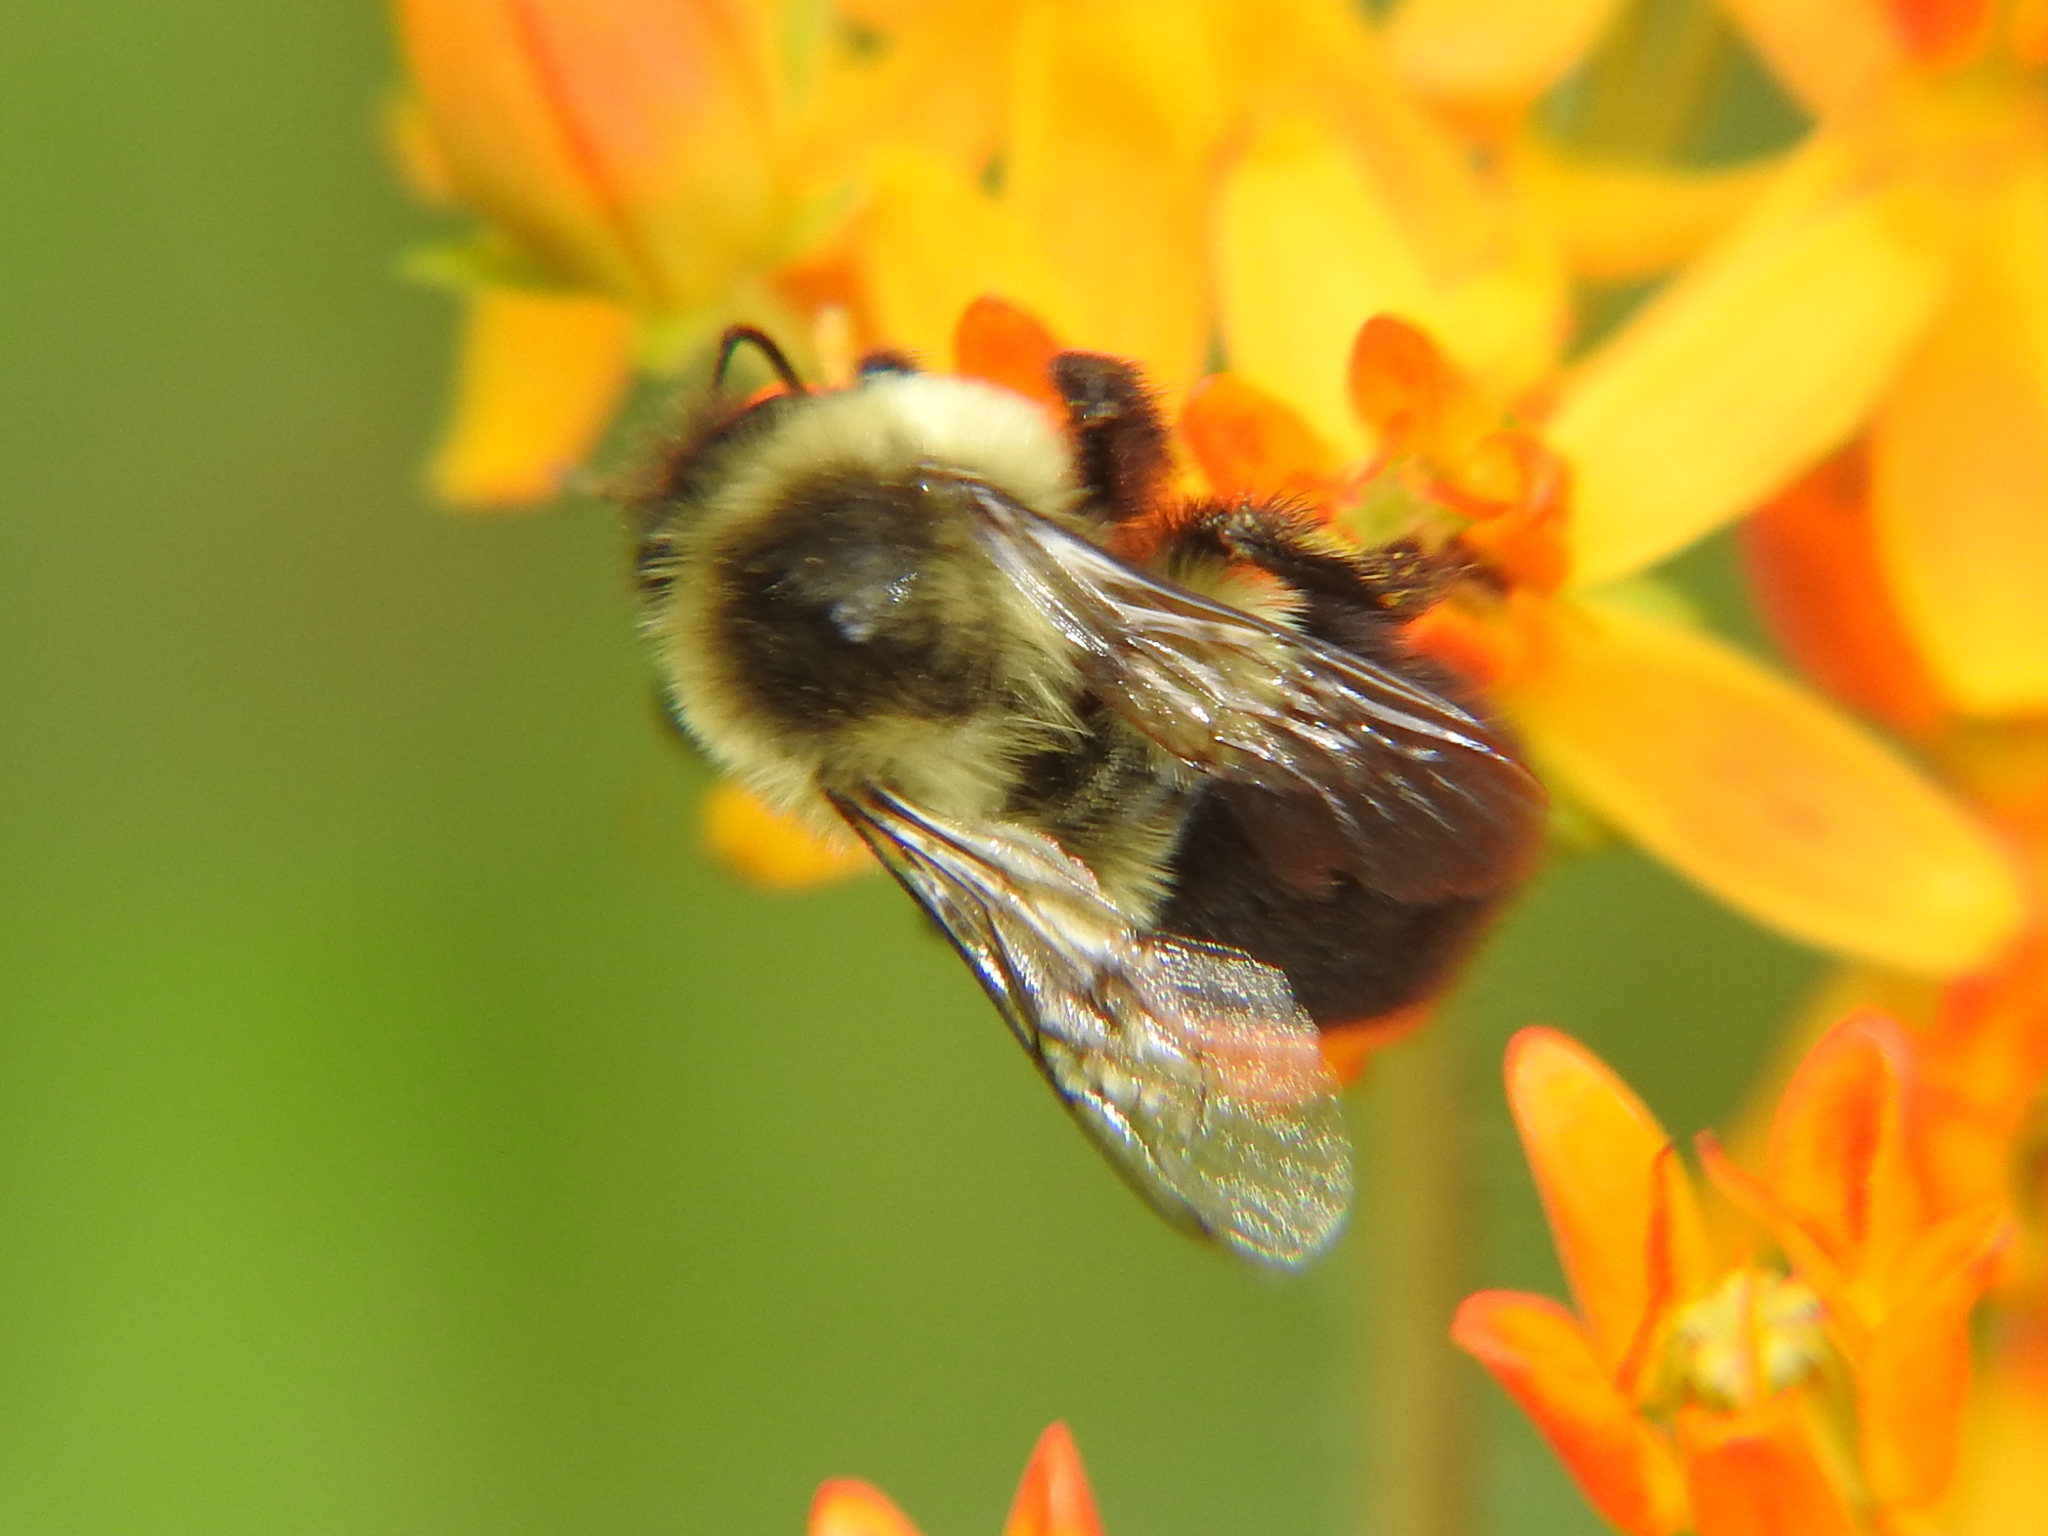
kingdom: Animalia
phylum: Arthropoda
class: Insecta
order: Hymenoptera
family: Apidae
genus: Bombus
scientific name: Bombus impatiens
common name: Common eastern bumble bee
